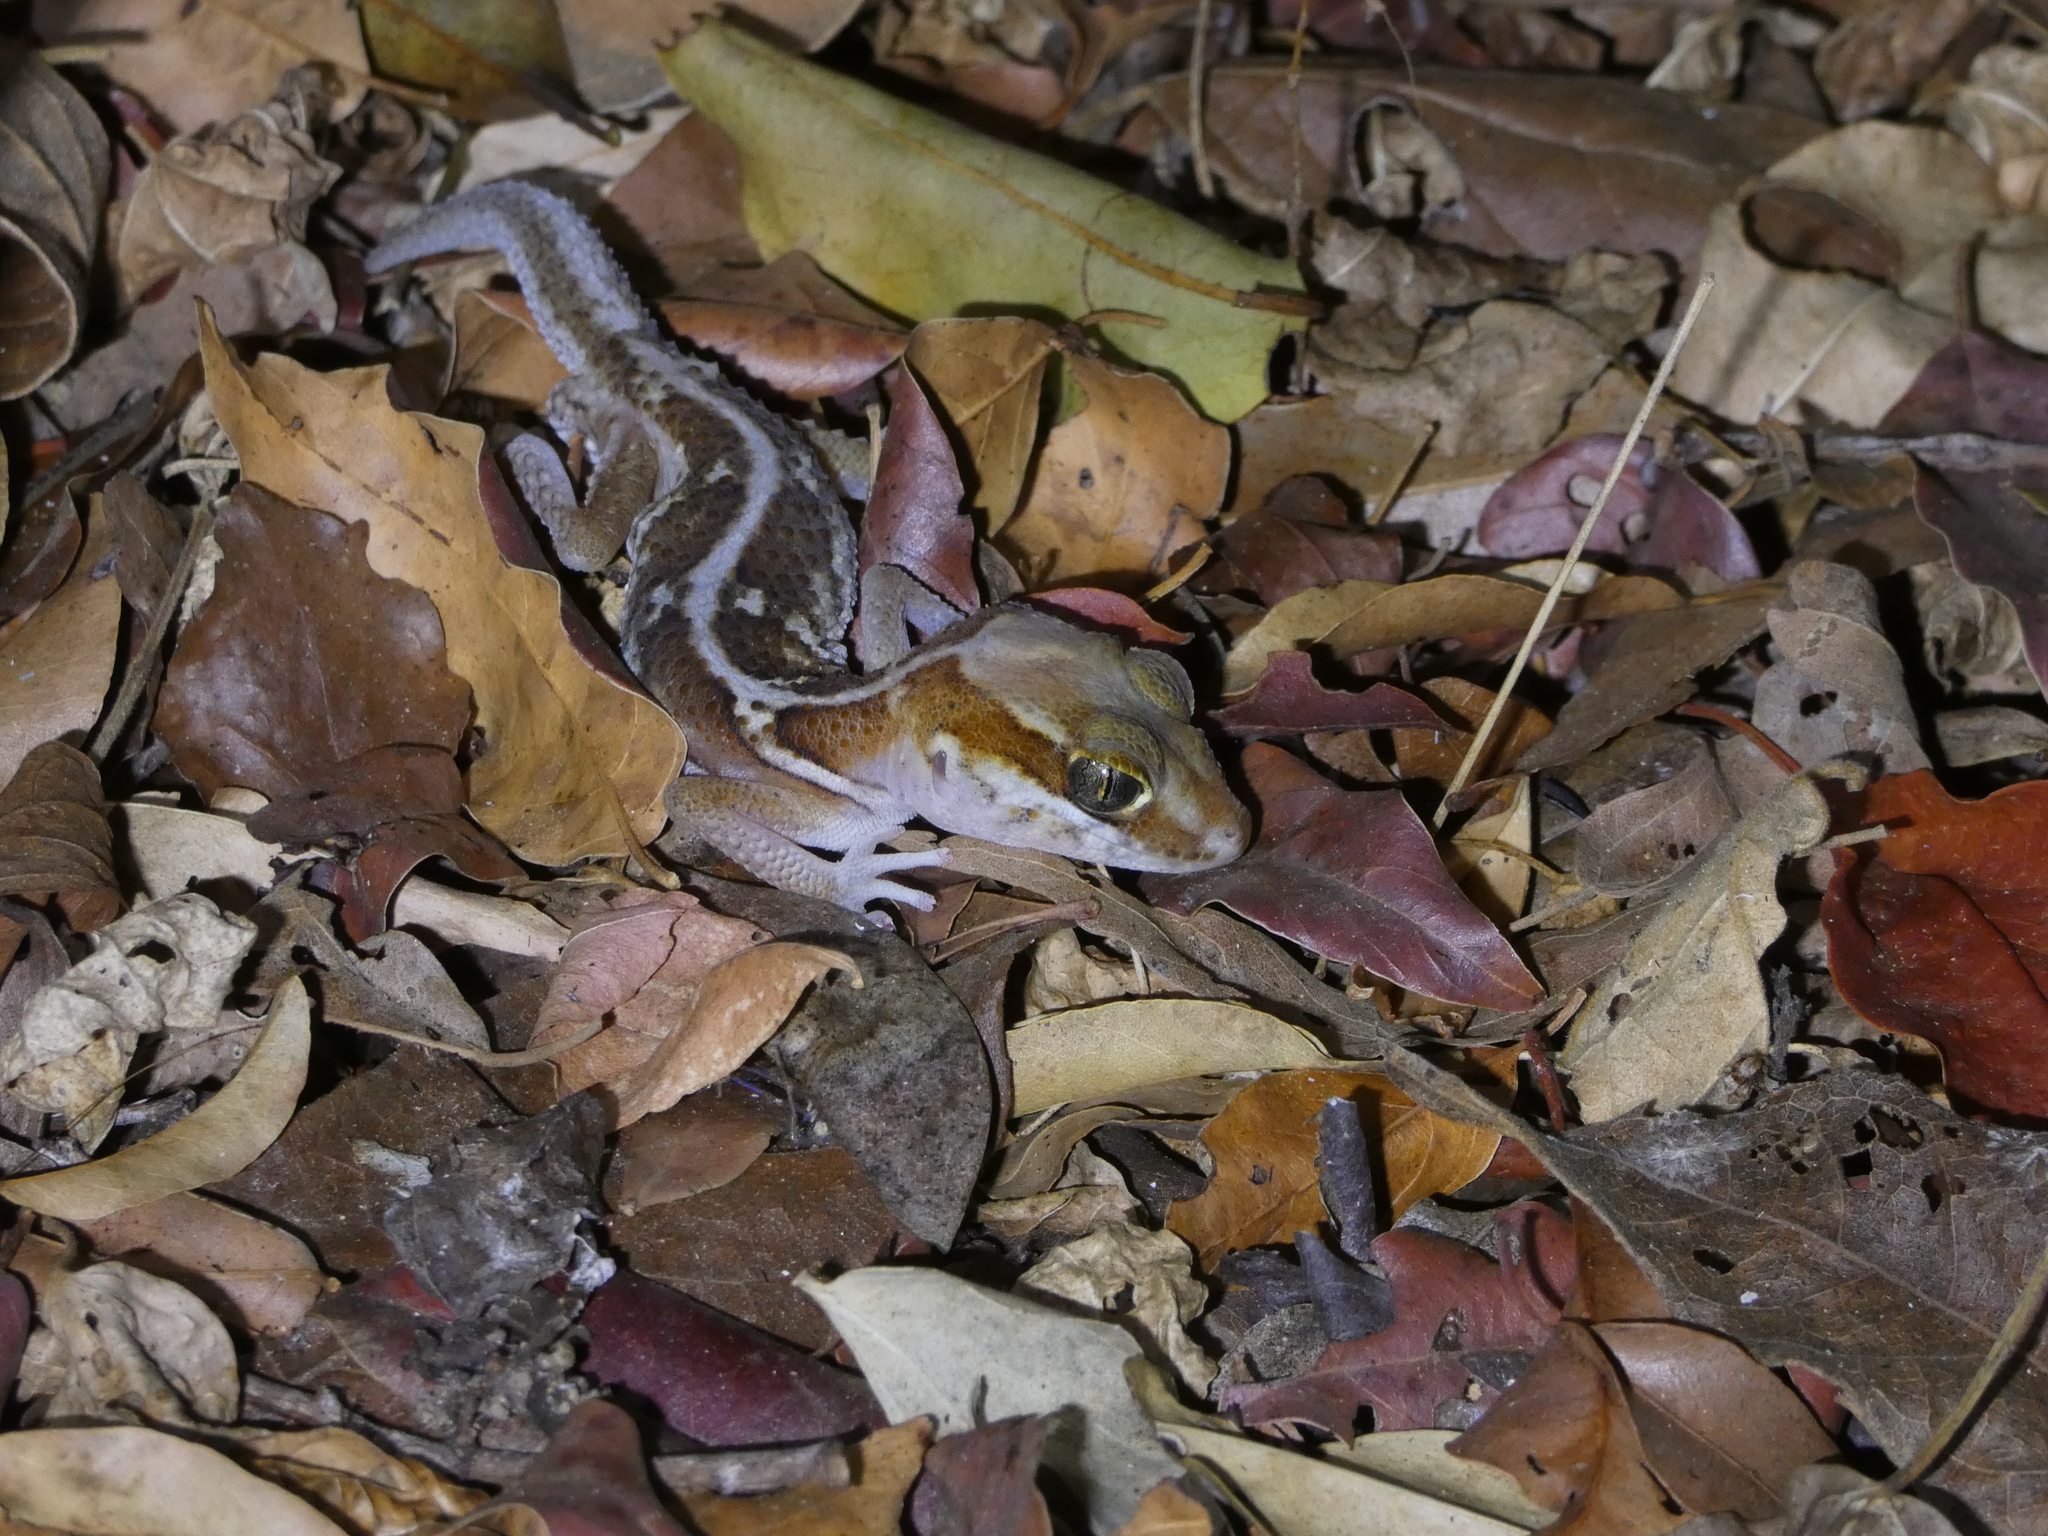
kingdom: Animalia
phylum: Chordata
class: Squamata
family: Gekkonidae
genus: Paroedura
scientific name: Paroedura picta
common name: Panther gecko
